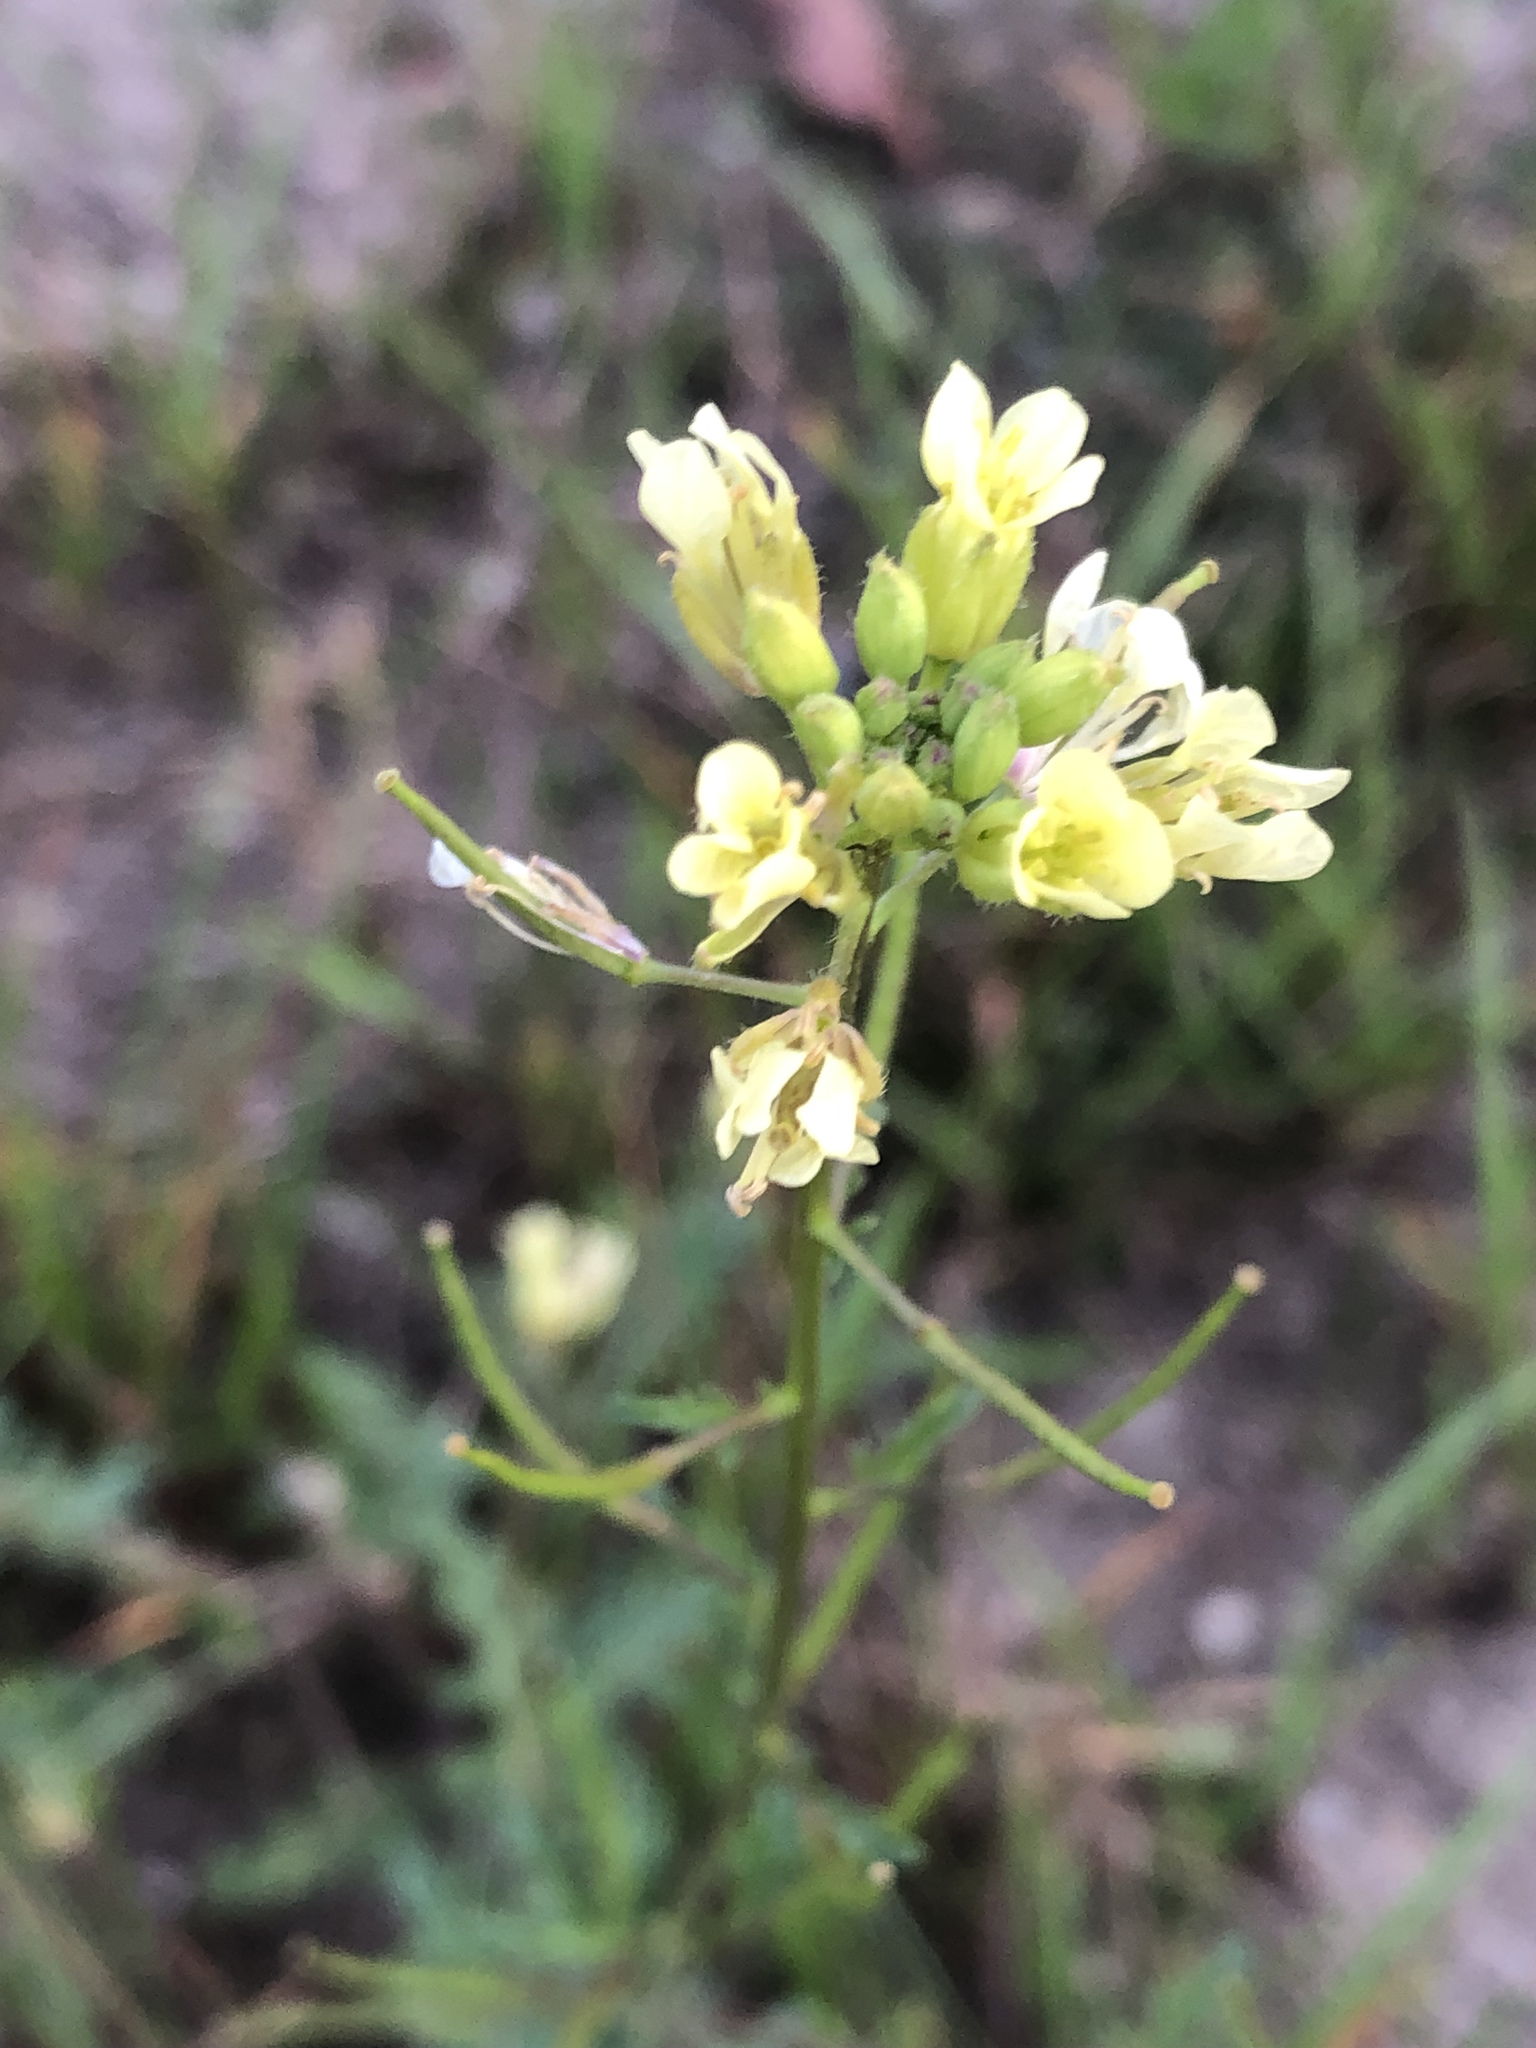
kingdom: Plantae
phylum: Tracheophyta
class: Magnoliopsida
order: Brassicales
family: Brassicaceae
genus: Erucastrum
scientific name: Erucastrum gallicum
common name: Hairy rocket
